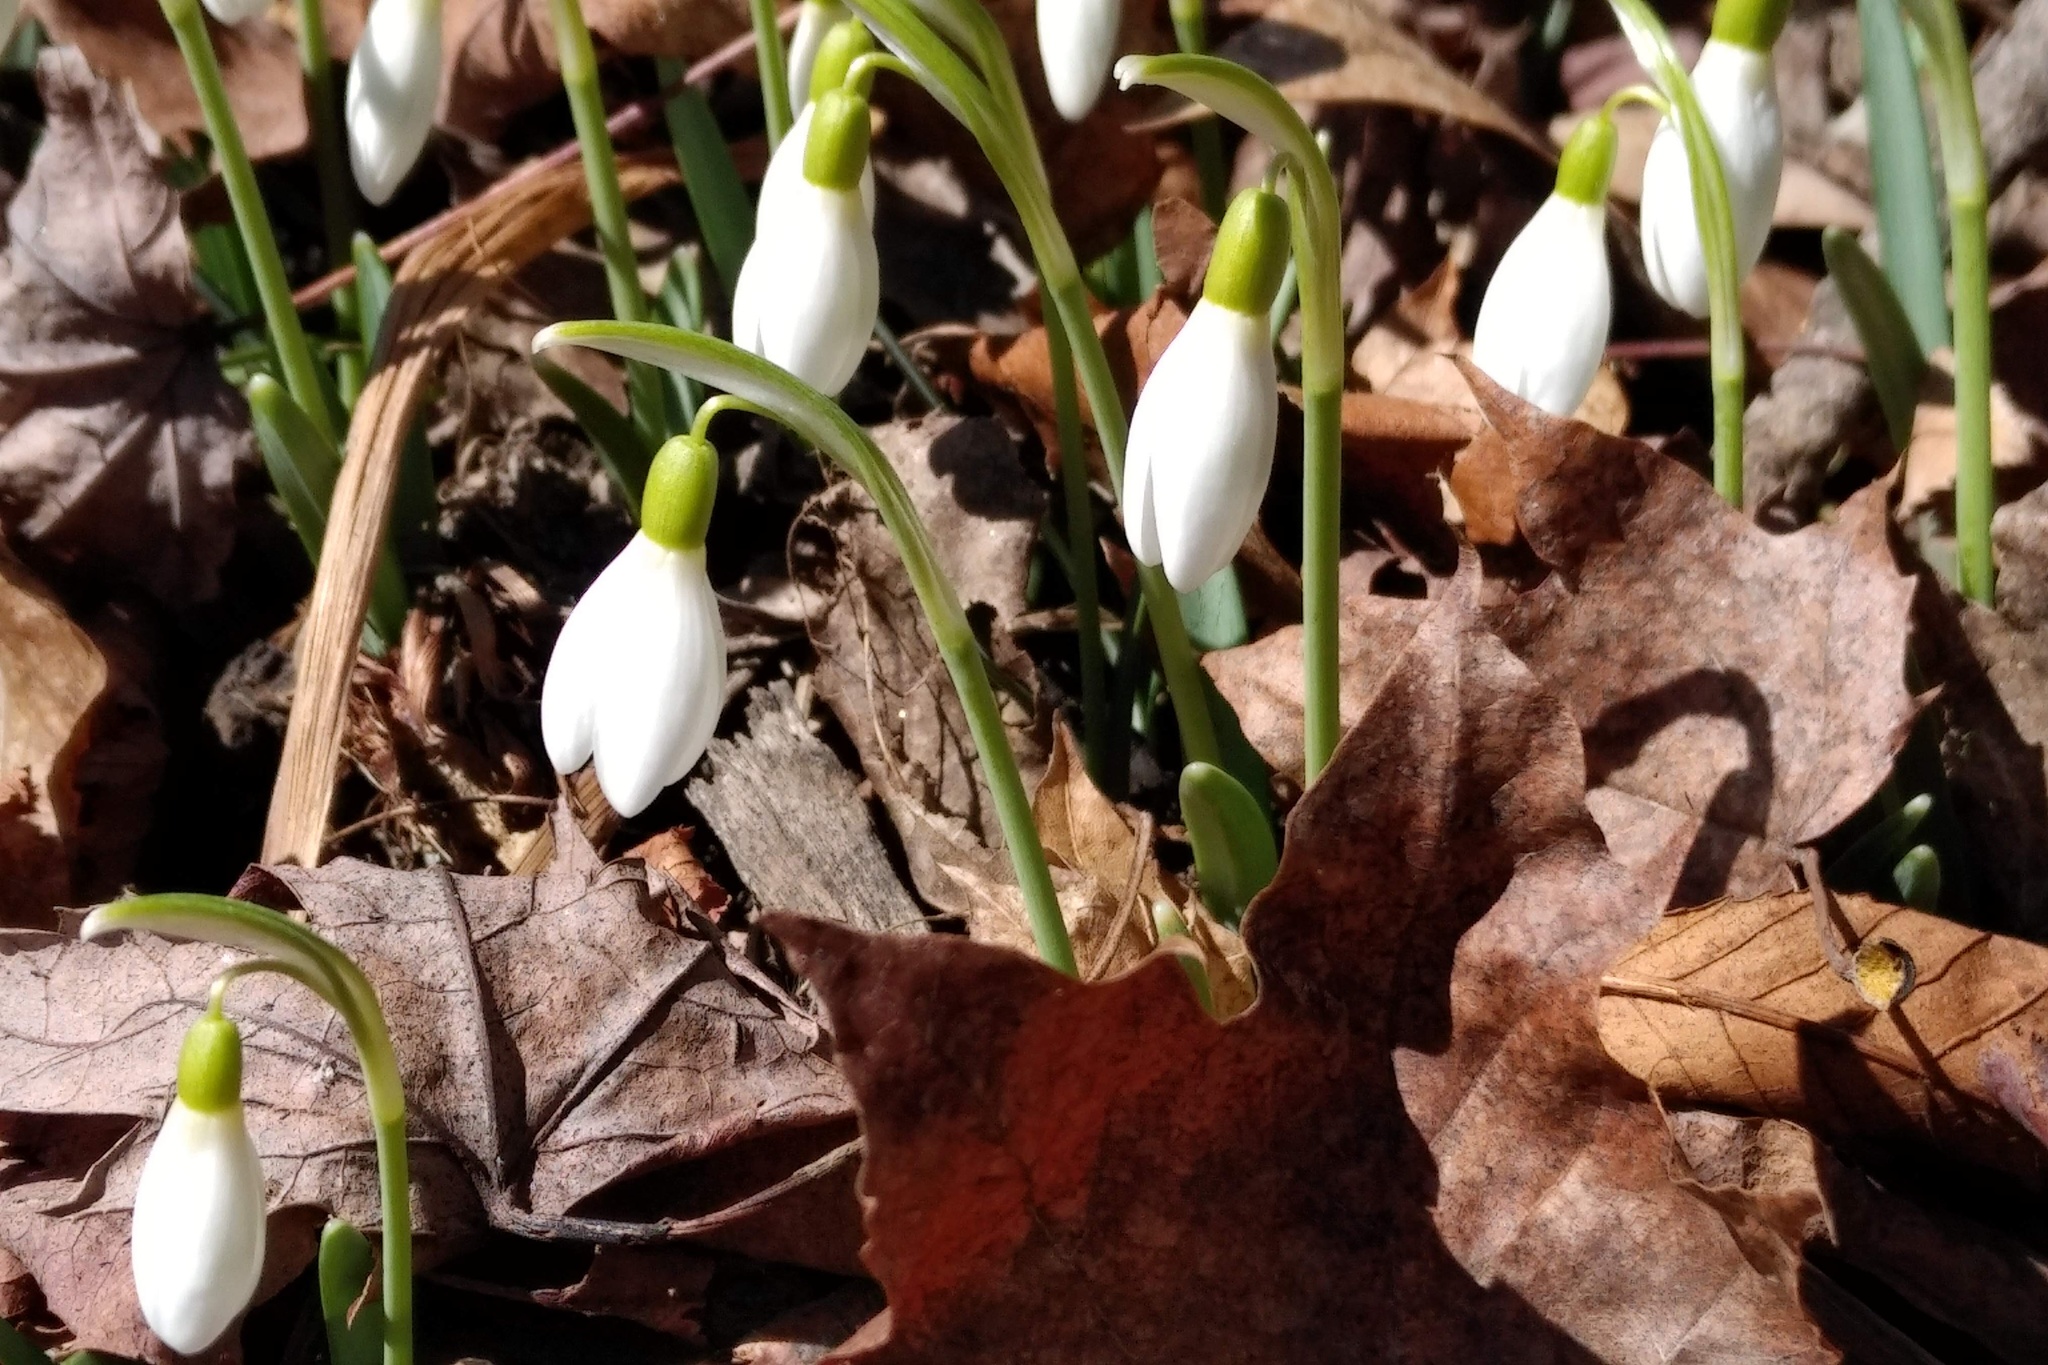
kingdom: Plantae
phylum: Tracheophyta
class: Liliopsida
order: Asparagales
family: Amaryllidaceae
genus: Galanthus
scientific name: Galanthus nivalis
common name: Snowdrop
